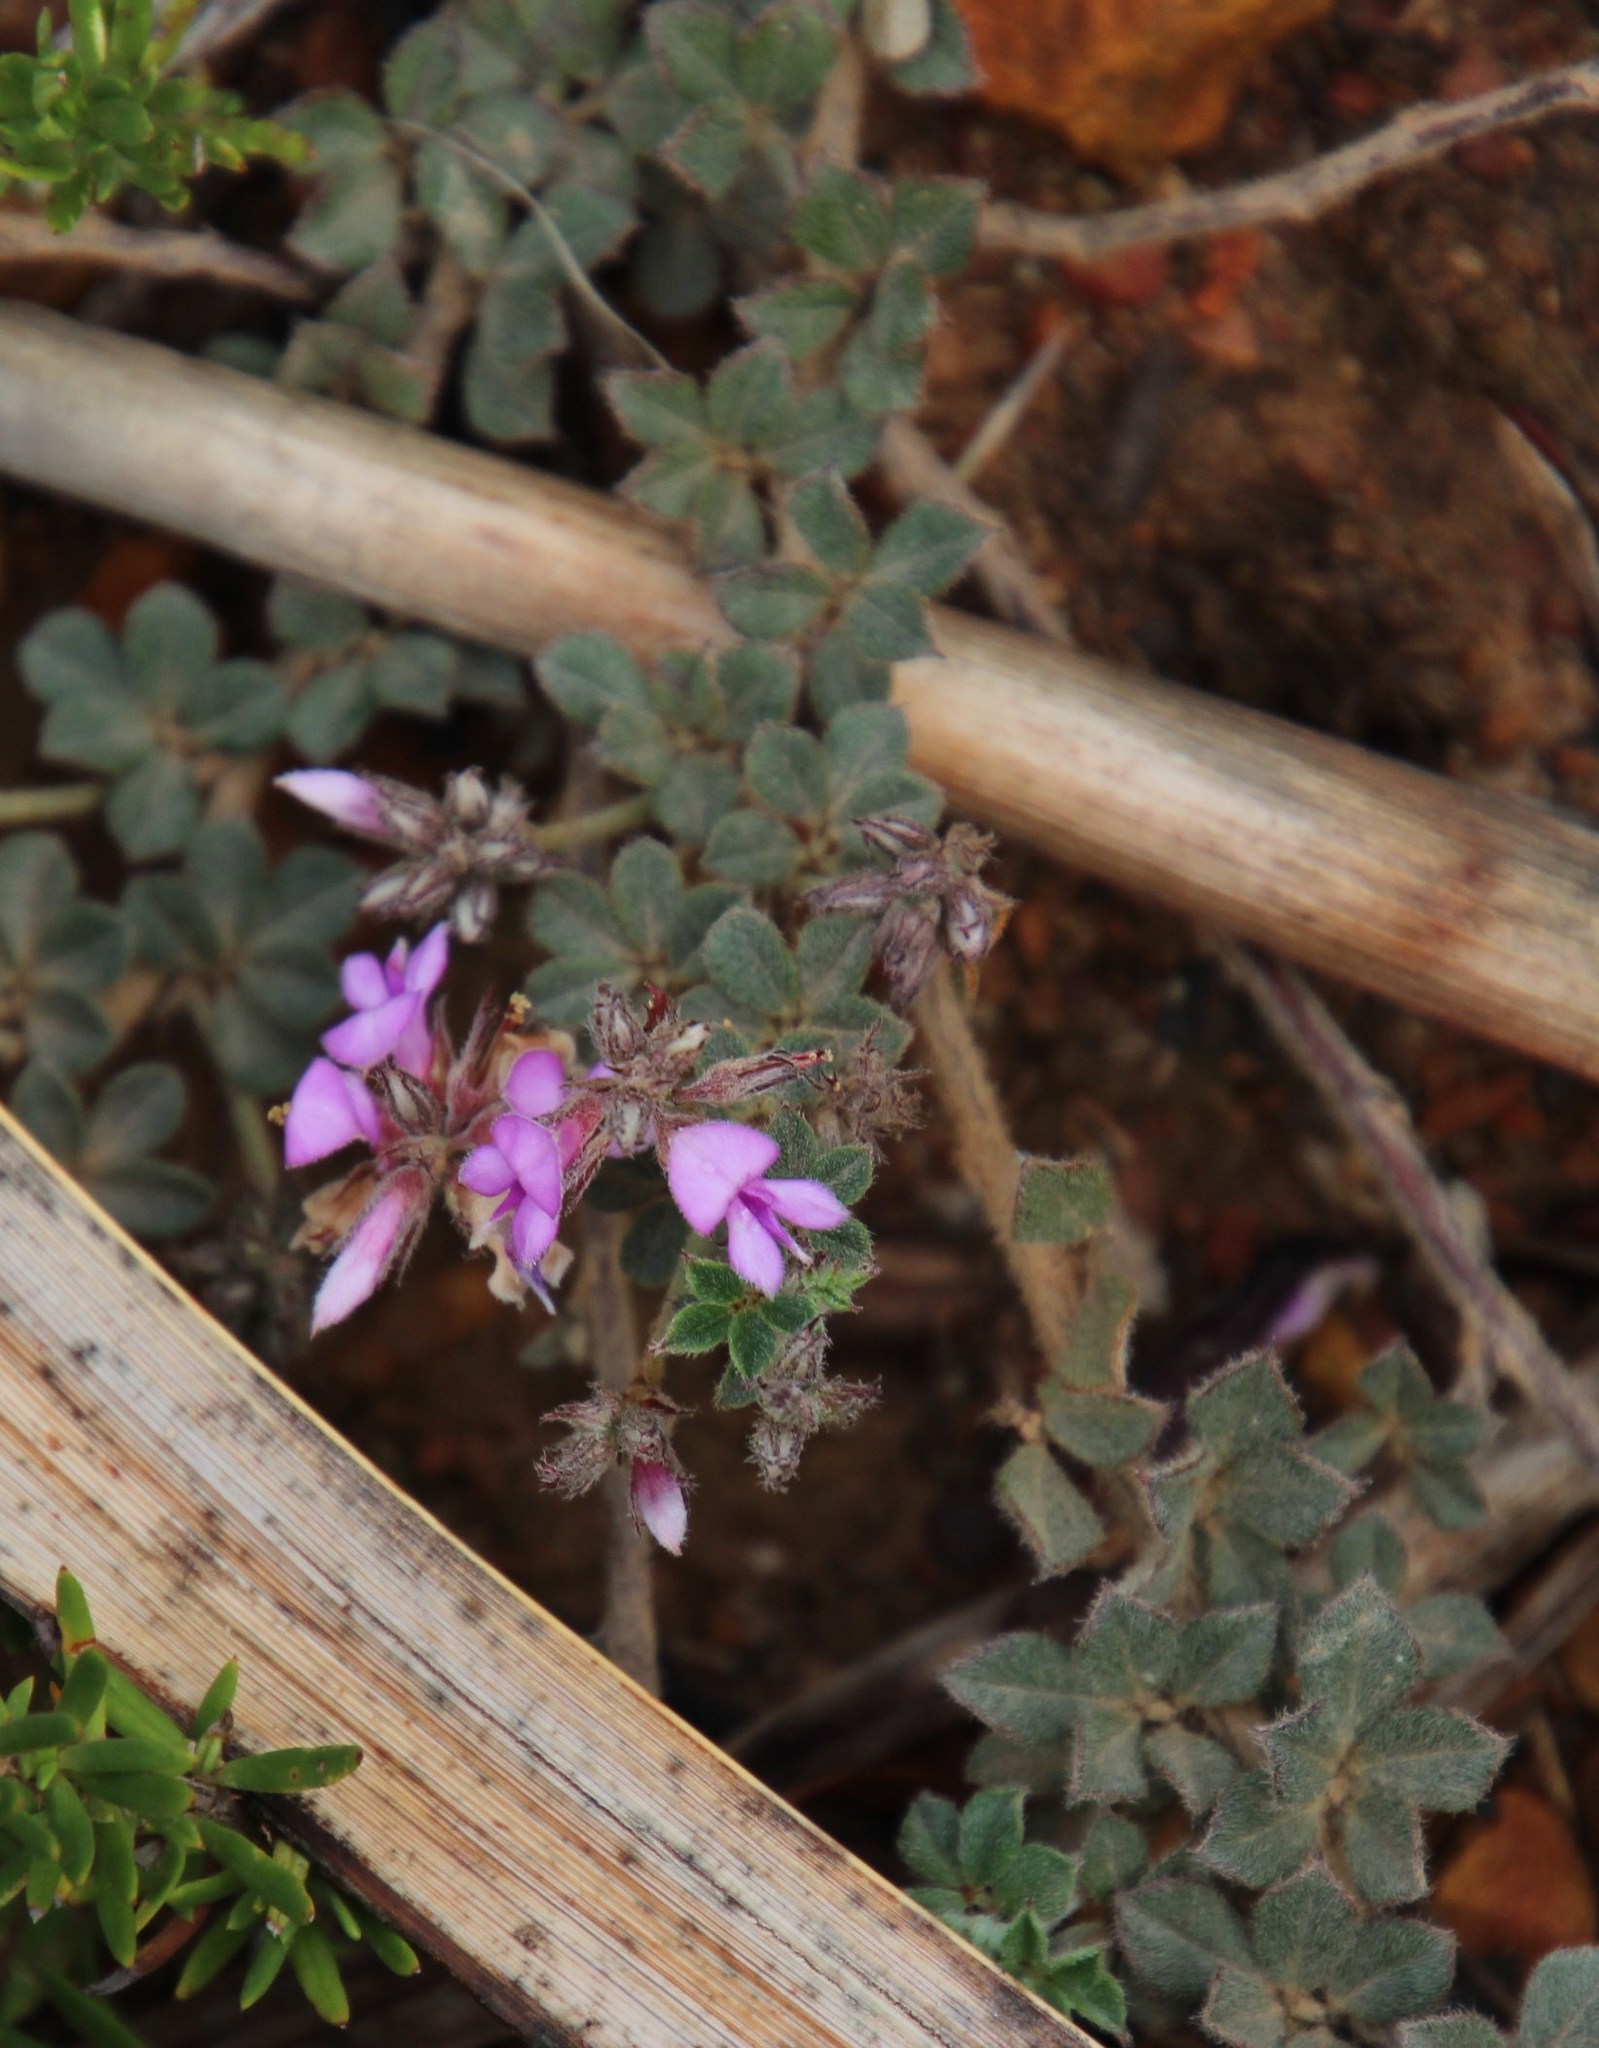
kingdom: Plantae
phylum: Tracheophyta
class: Magnoliopsida
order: Fabales
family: Fabaceae
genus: Indigofera
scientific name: Indigofera mauritanica
